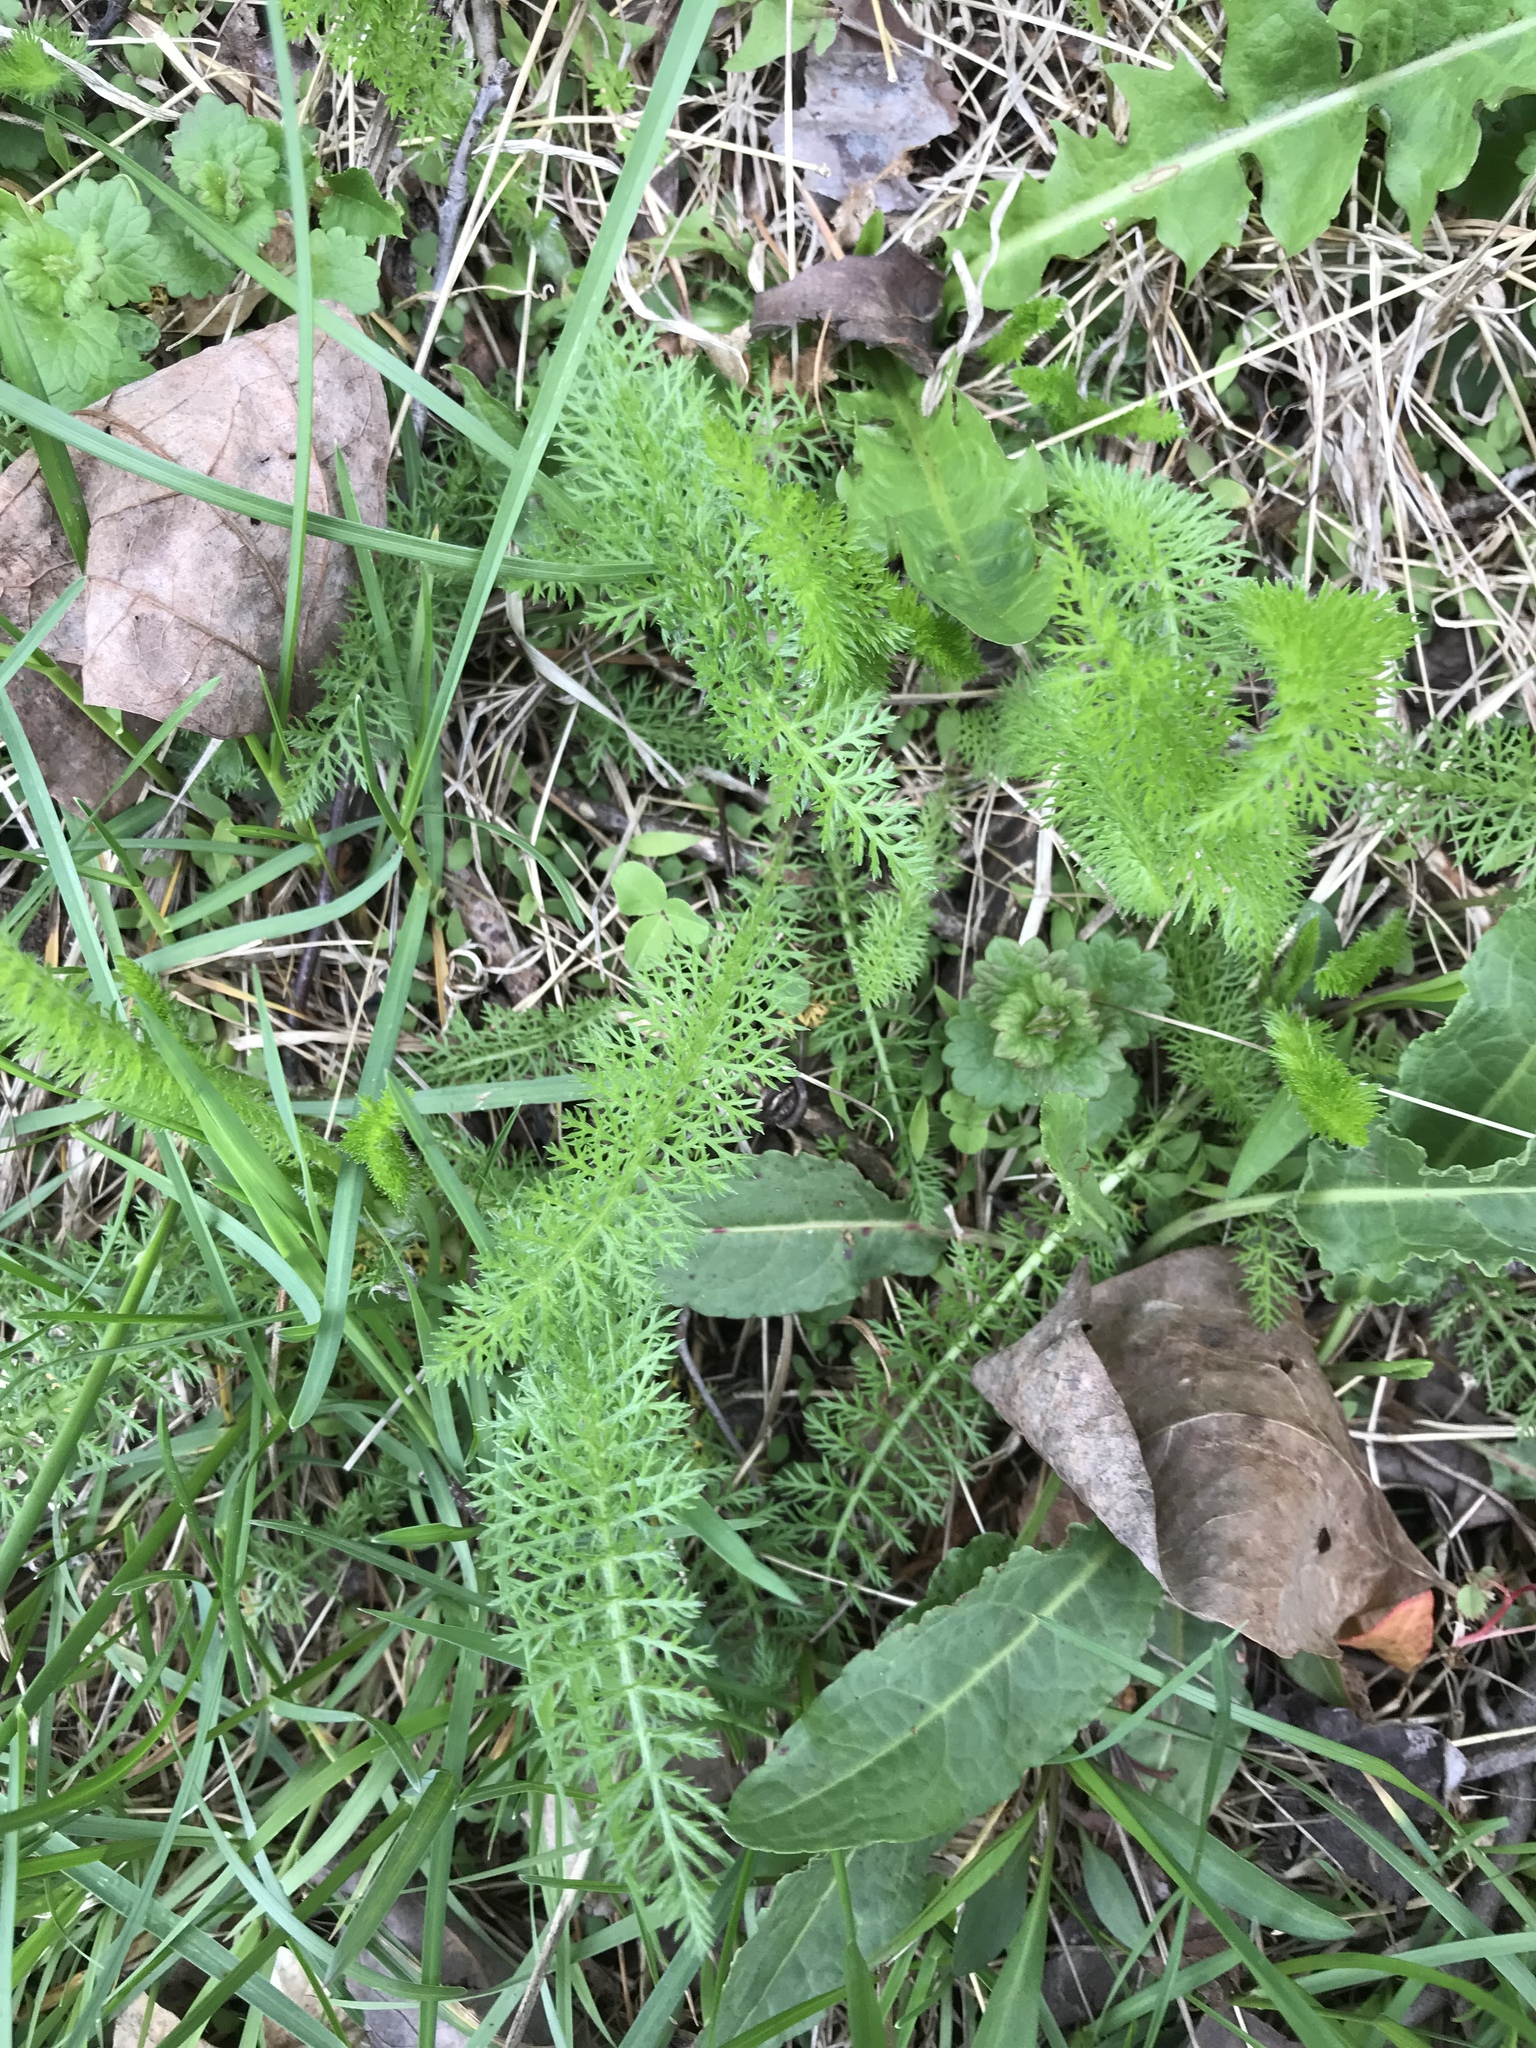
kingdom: Plantae
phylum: Tracheophyta
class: Magnoliopsida
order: Asterales
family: Asteraceae
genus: Achillea
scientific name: Achillea millefolium
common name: Yarrow
